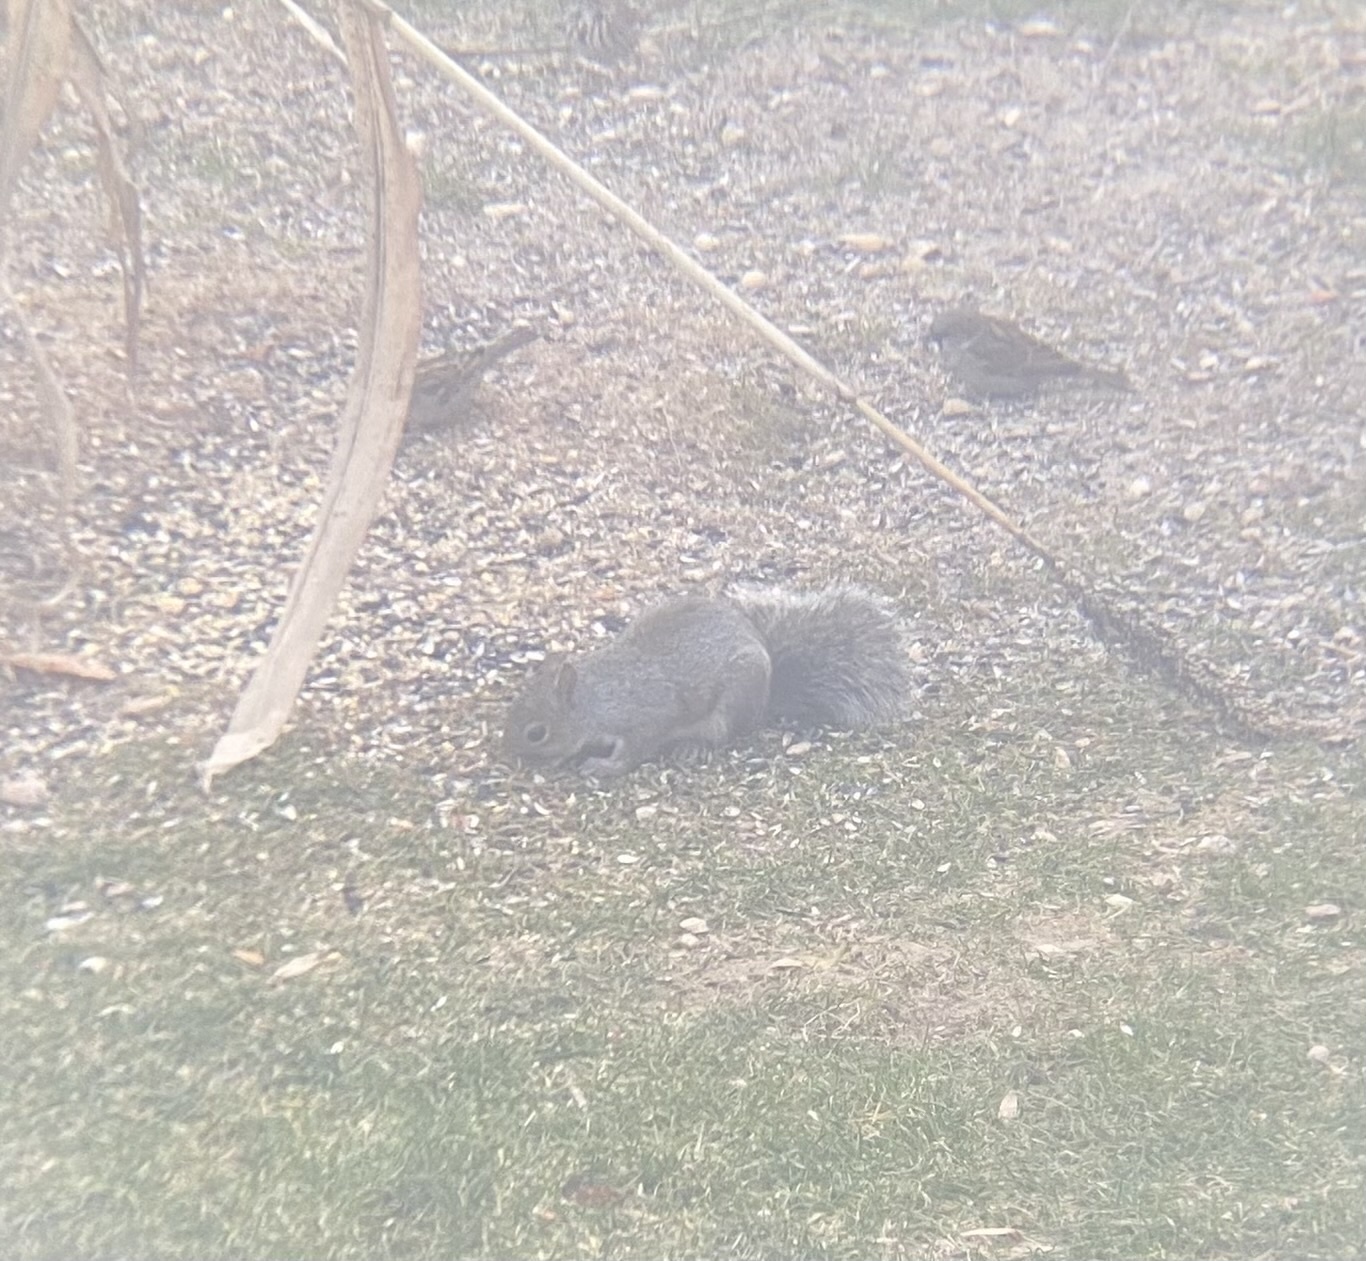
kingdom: Animalia
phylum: Chordata
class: Mammalia
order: Rodentia
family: Sciuridae
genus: Sciurus
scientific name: Sciurus carolinensis
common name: Eastern gray squirrel
